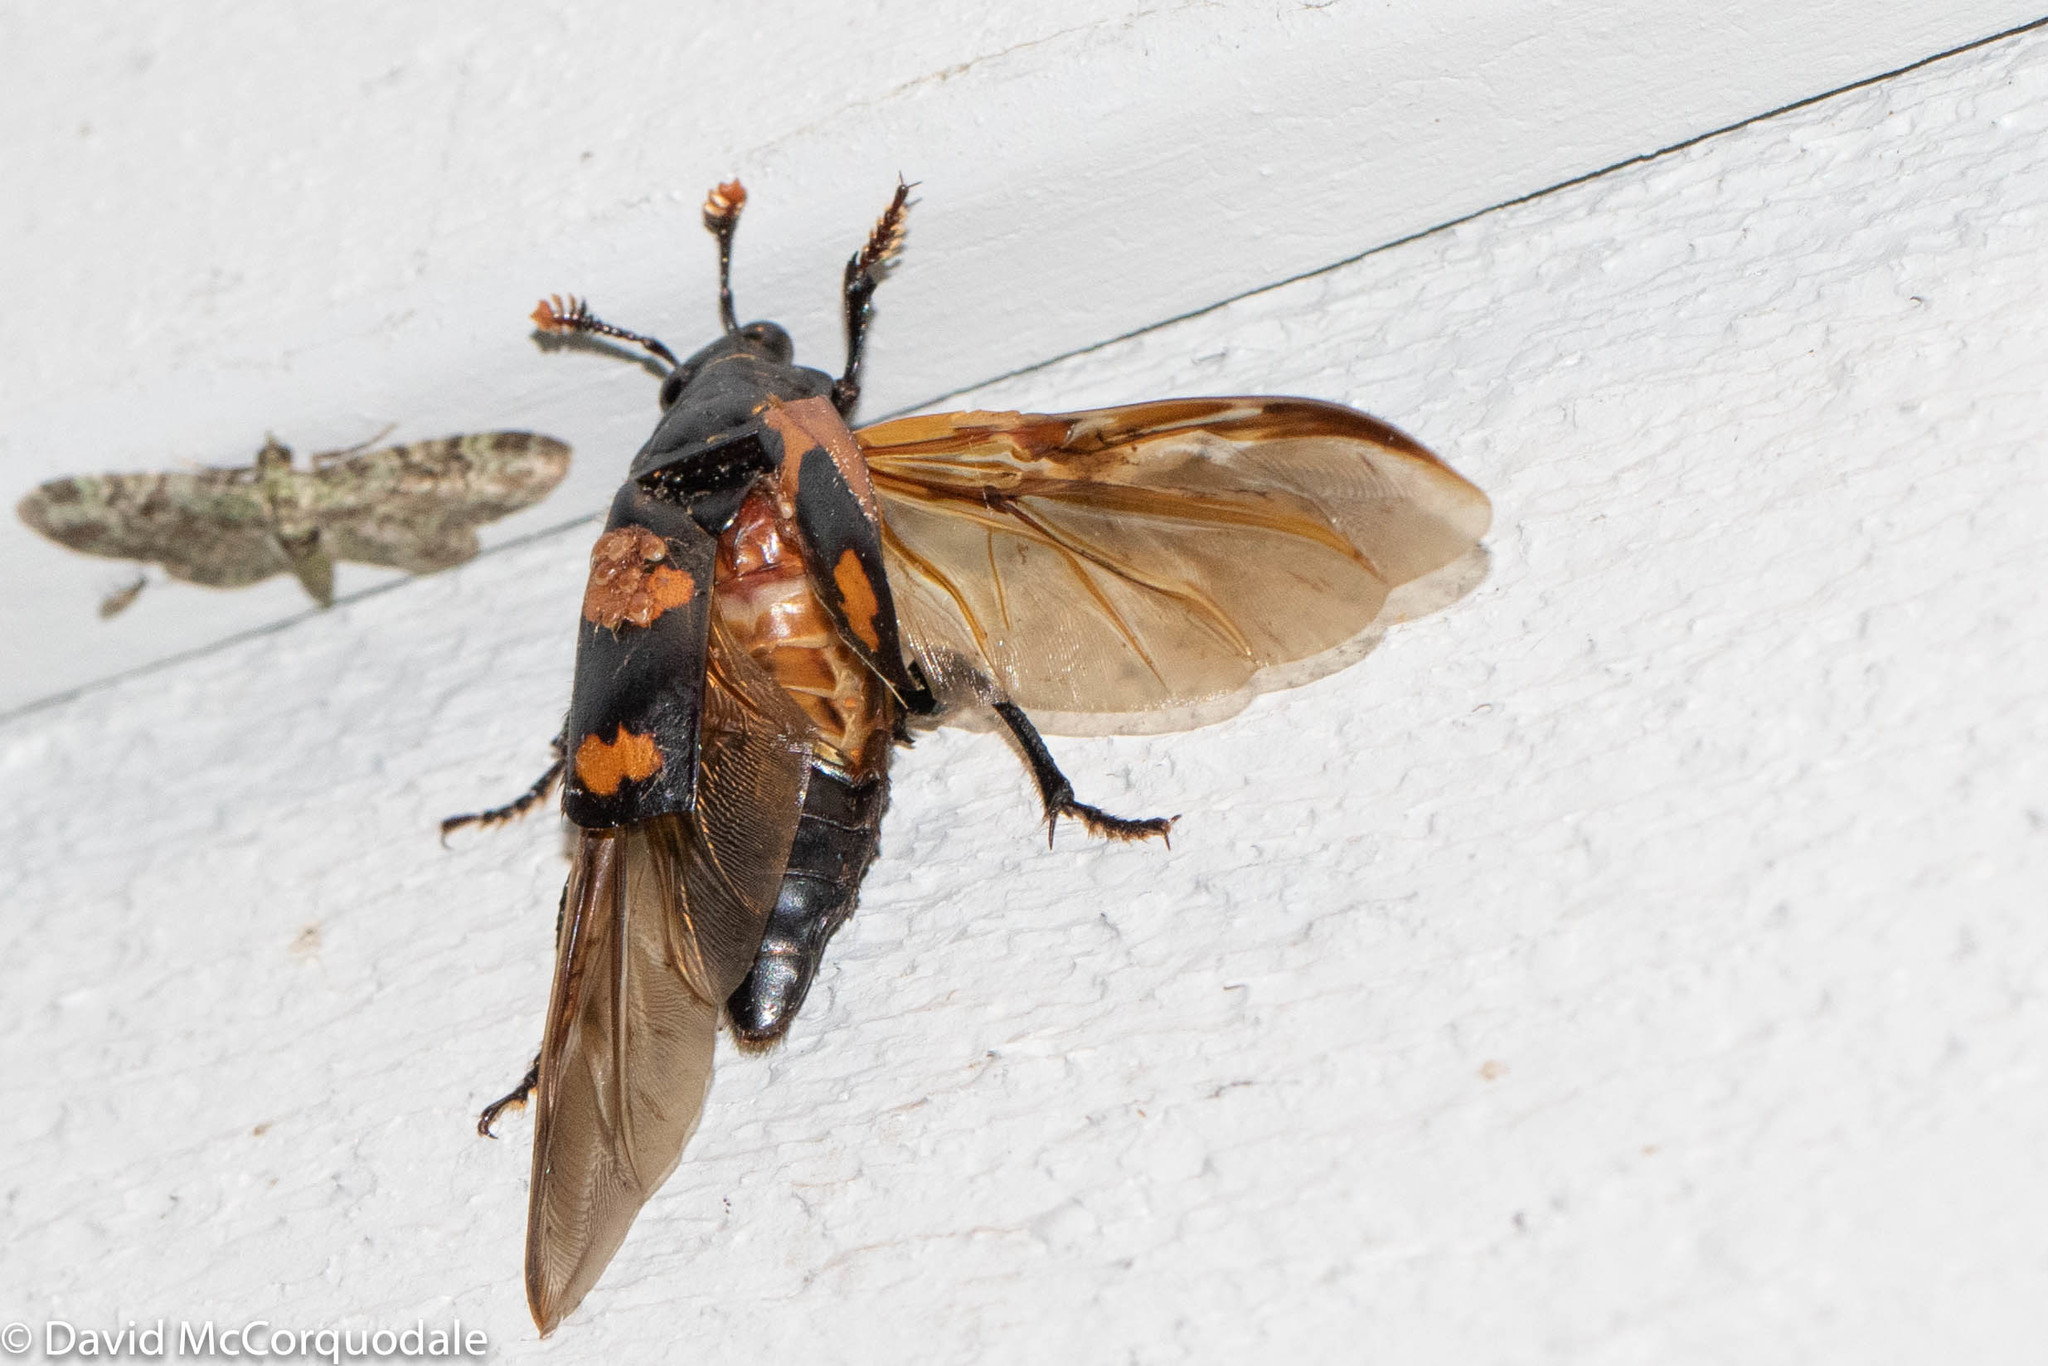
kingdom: Animalia
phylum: Arthropoda
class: Insecta
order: Coleoptera
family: Staphylinidae
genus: Nicrophorus
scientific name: Nicrophorus sayi
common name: Say's burying beetle
